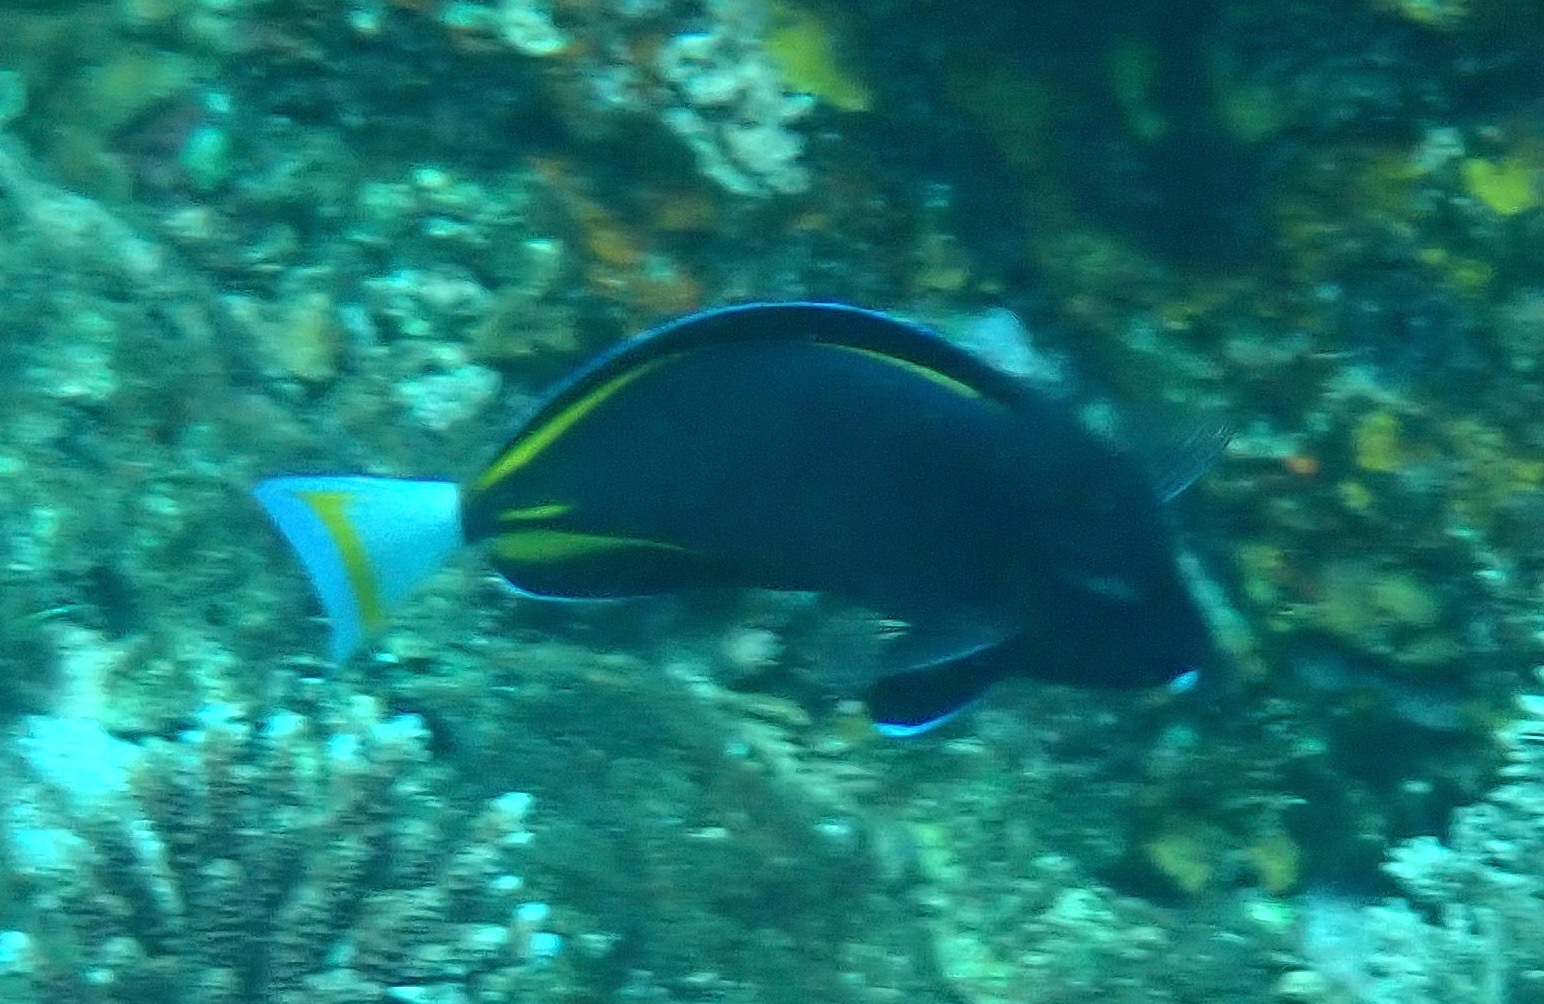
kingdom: Animalia
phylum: Chordata
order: Perciformes
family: Acanthuridae
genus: Acanthurus
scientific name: Acanthurus nigricans
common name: Whitecheek surgeonfish
